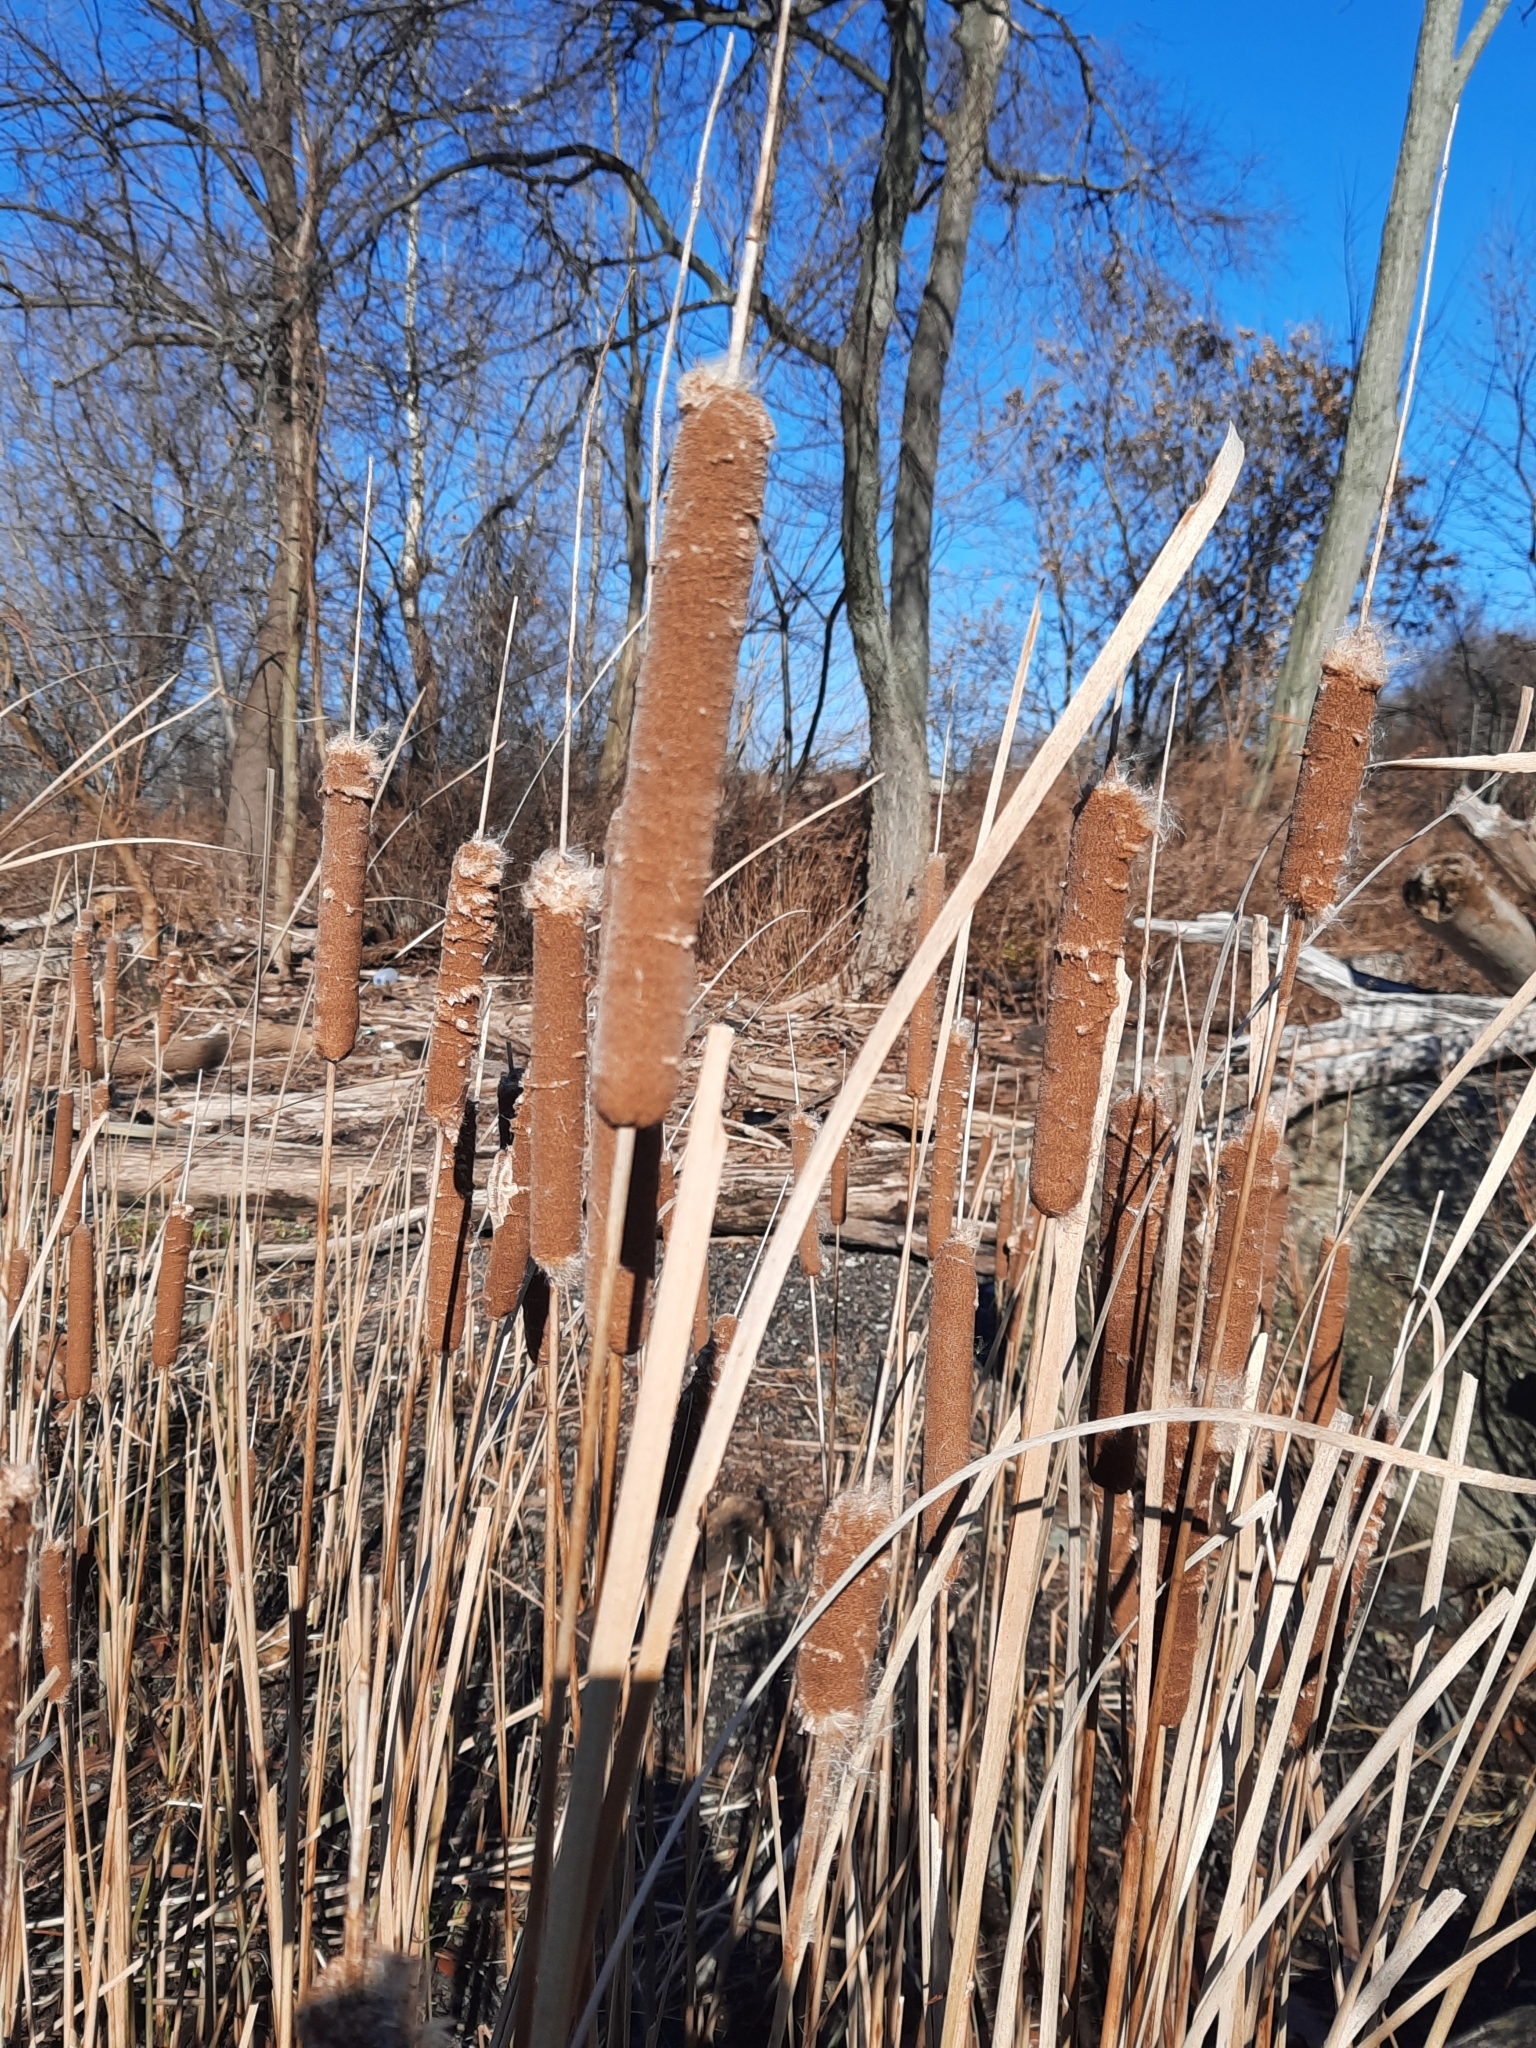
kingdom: Plantae
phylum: Tracheophyta
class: Liliopsida
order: Poales
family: Typhaceae
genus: Typha
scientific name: Typha
